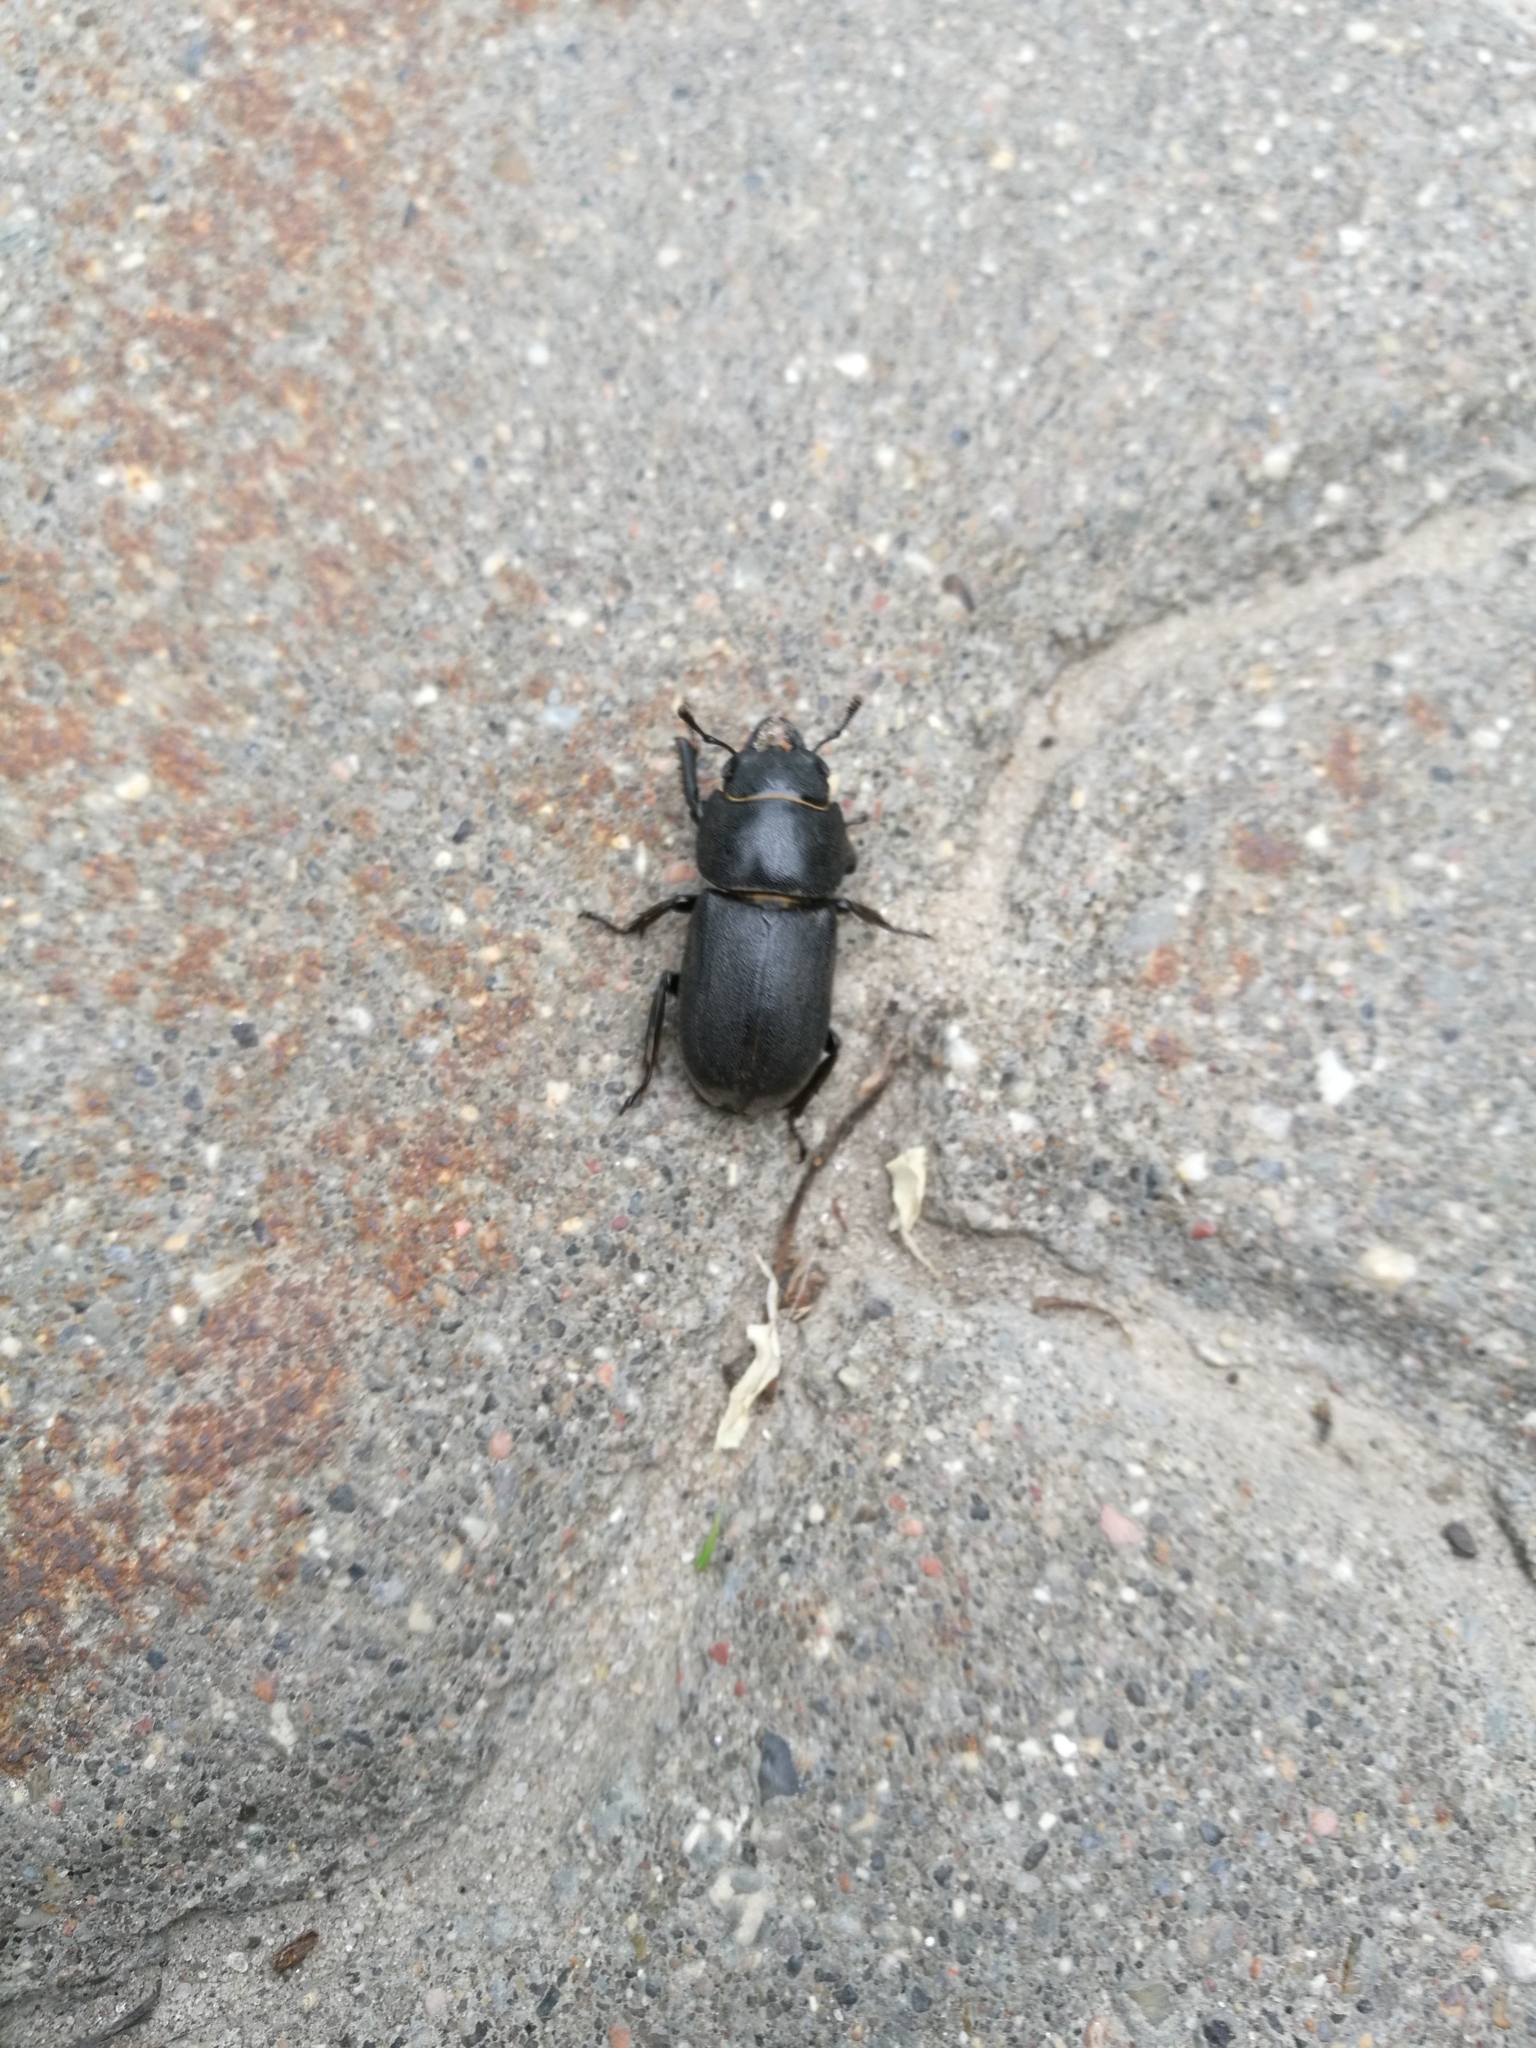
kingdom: Animalia
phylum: Arthropoda
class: Insecta
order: Coleoptera
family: Lucanidae
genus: Dorcus
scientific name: Dorcus parallelipipedus
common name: Lesser stag beetle
